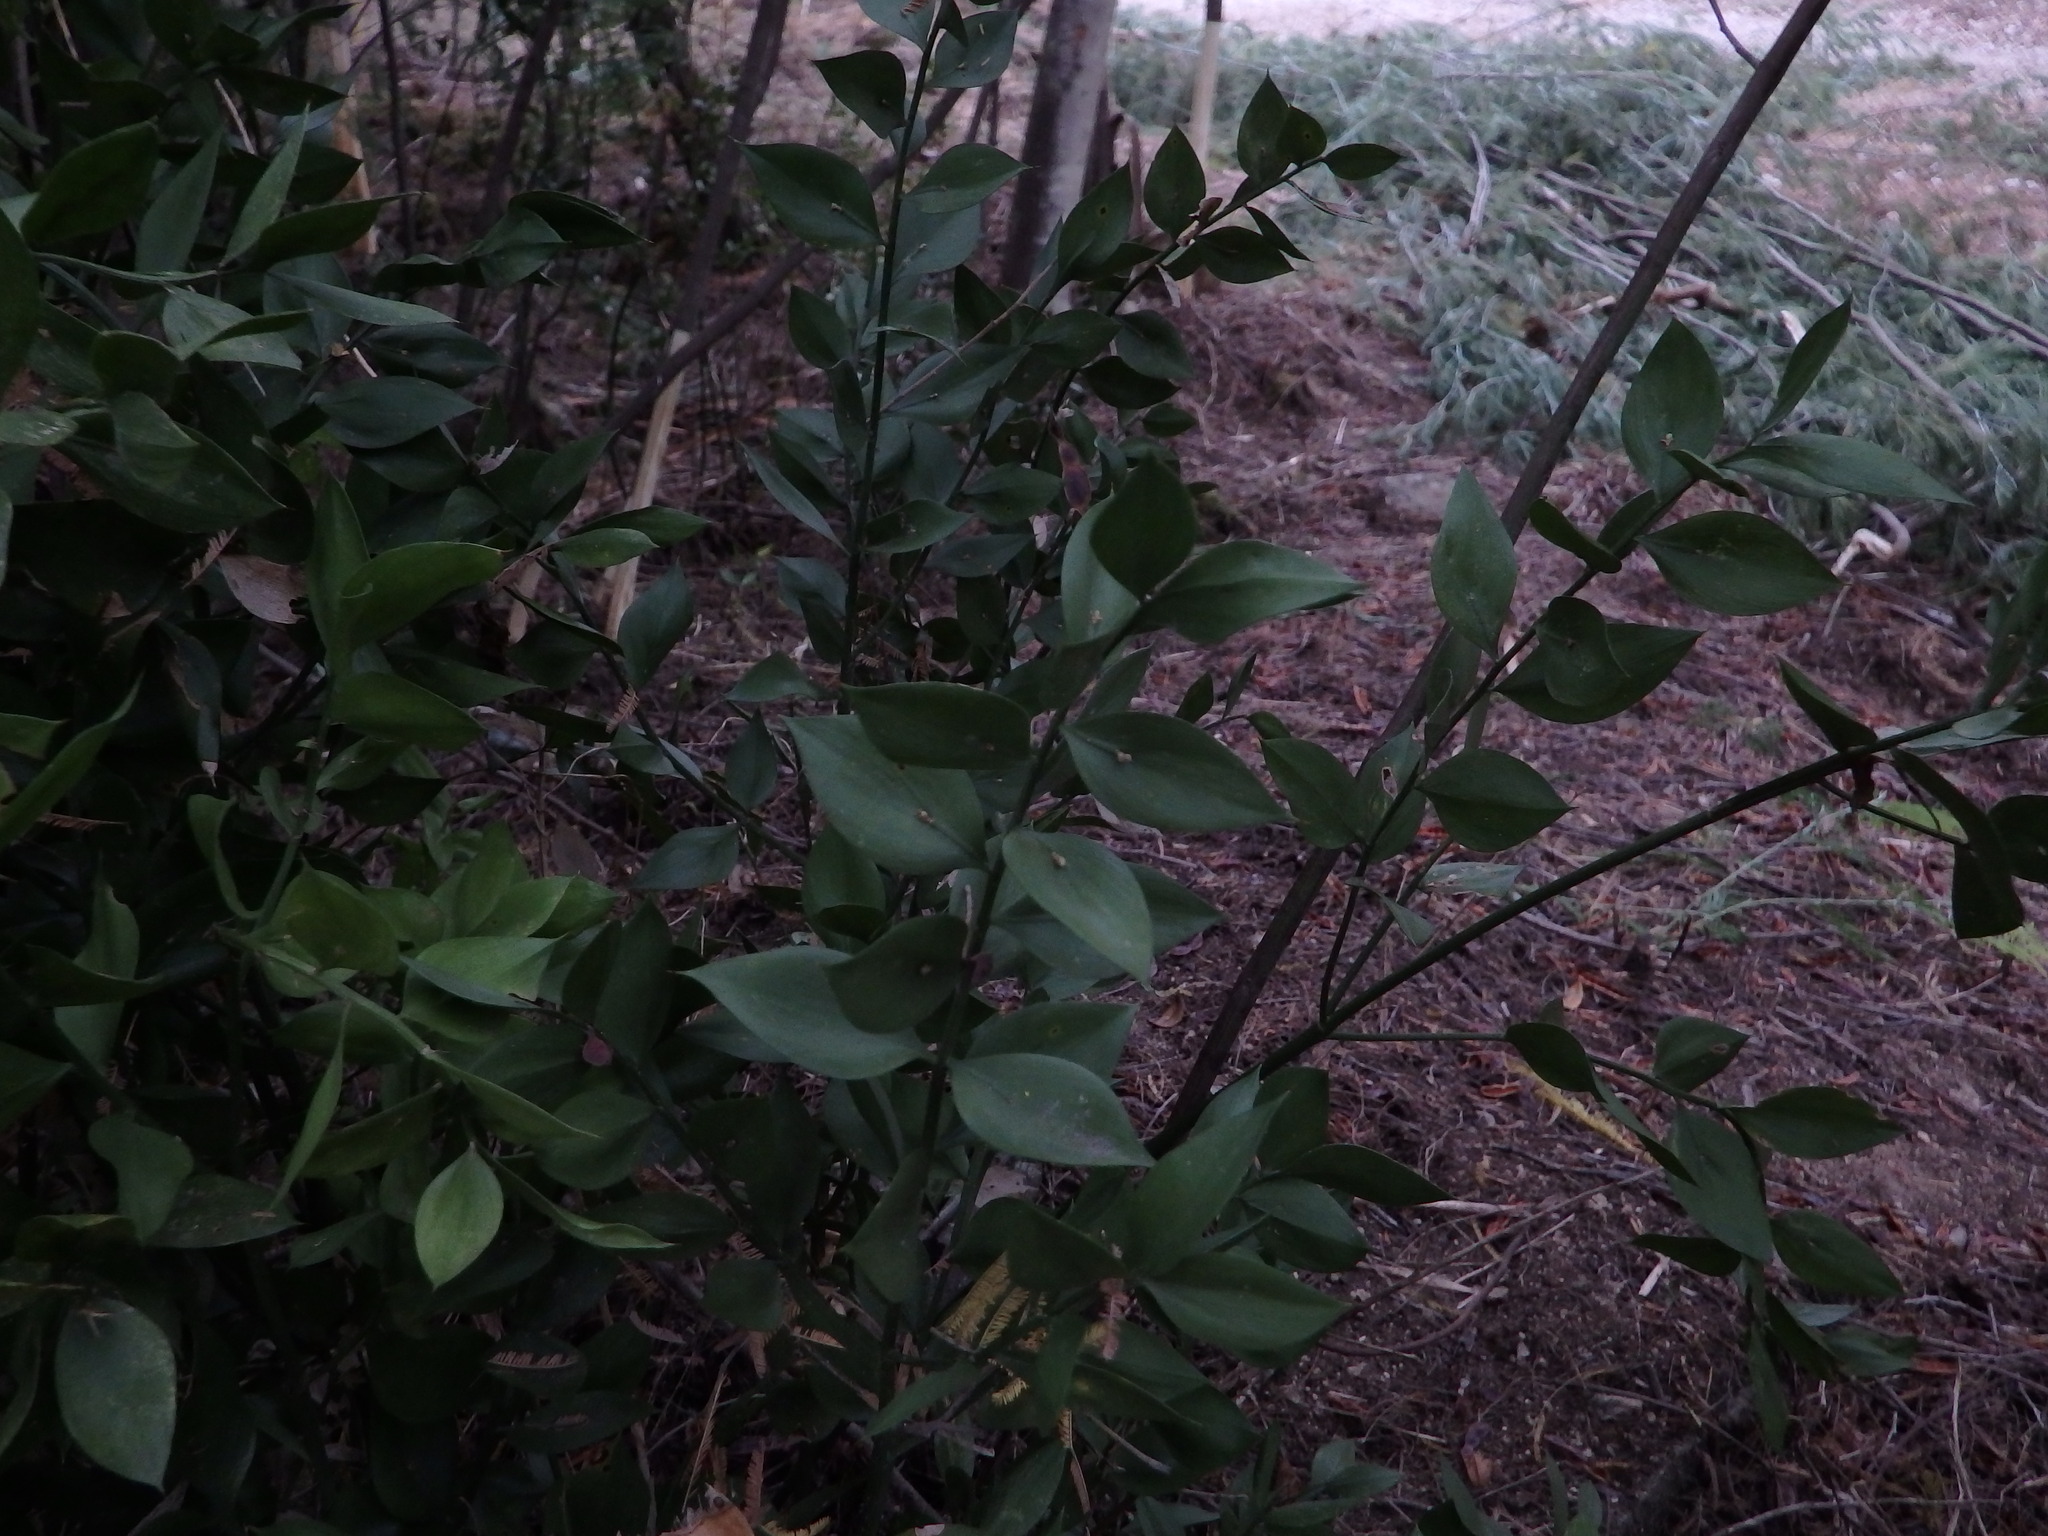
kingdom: Plantae
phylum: Tracheophyta
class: Liliopsida
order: Asparagales
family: Asparagaceae
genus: Ruscus
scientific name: Ruscus aculeatus
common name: Butcher's-broom
